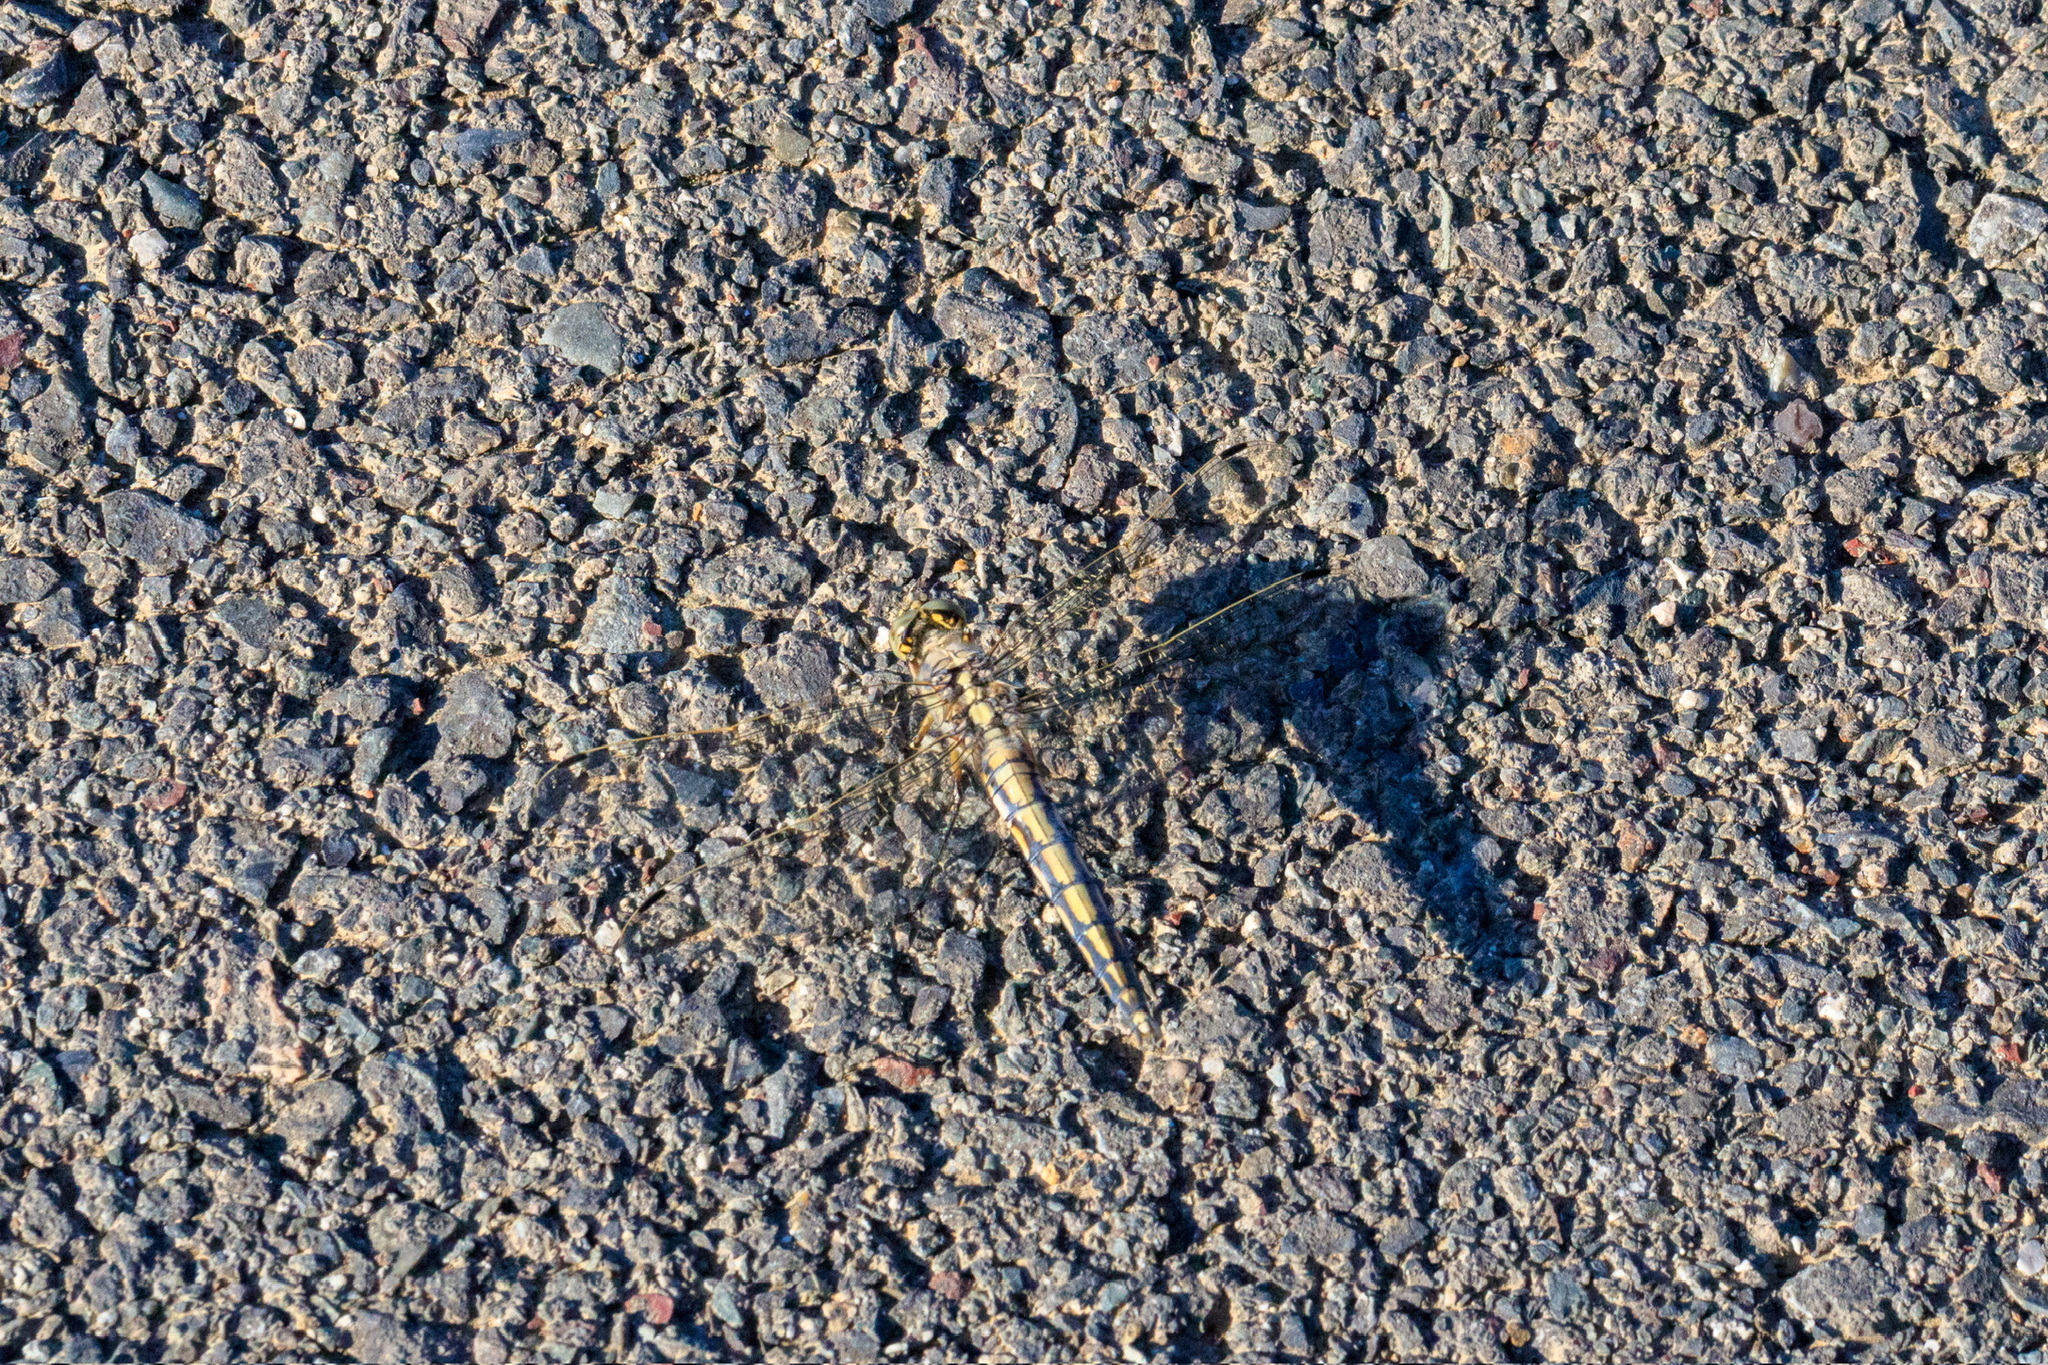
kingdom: Animalia
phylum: Arthropoda
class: Insecta
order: Odonata
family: Libellulidae
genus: Orthetrum
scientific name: Orthetrum cancellatum
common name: Black-tailed skimmer
